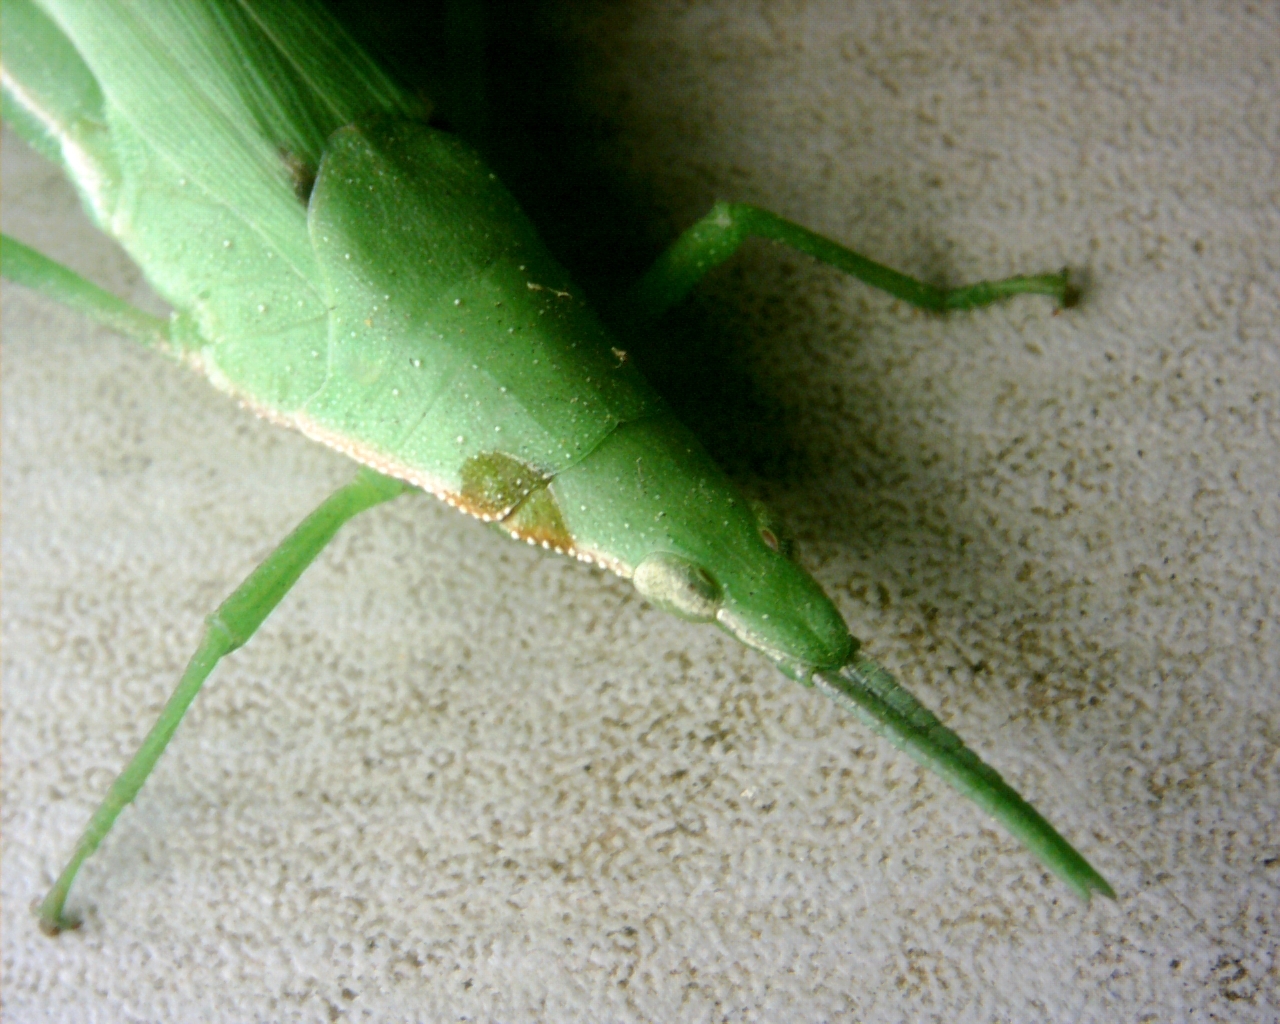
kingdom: Animalia
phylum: Arthropoda
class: Insecta
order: Orthoptera
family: Pyrgomorphidae
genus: Atractomorpha
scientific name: Atractomorpha sinensis
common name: Pinkwinged grasshopper
